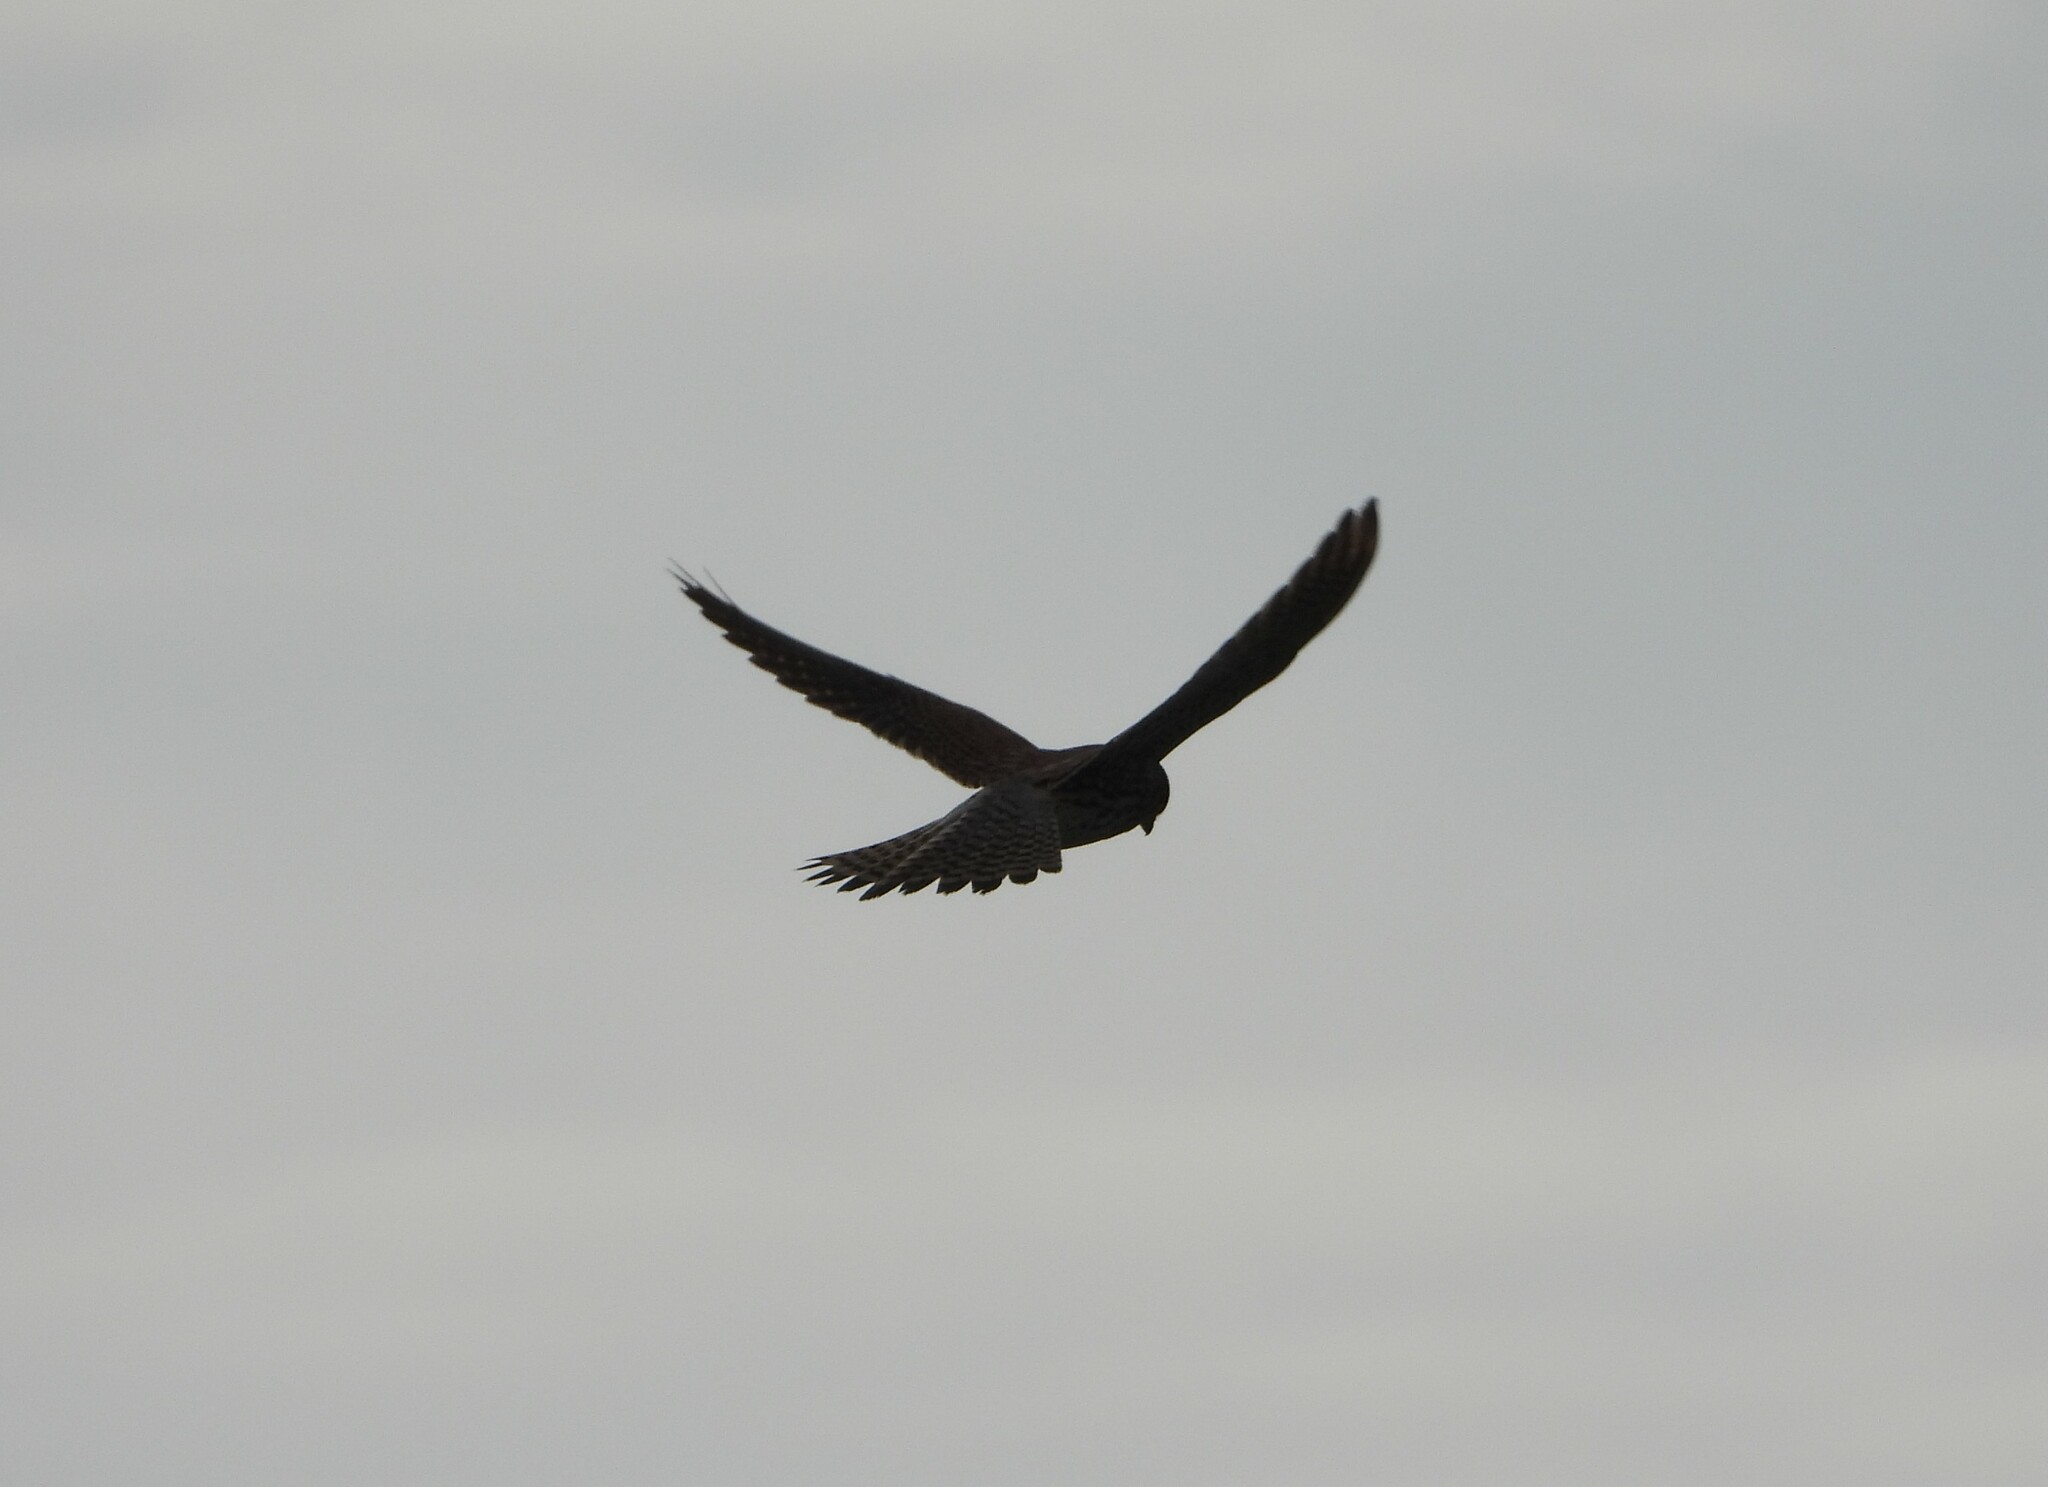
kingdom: Animalia
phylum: Chordata
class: Aves
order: Falconiformes
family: Falconidae
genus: Falco
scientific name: Falco tinnunculus
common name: Common kestrel
